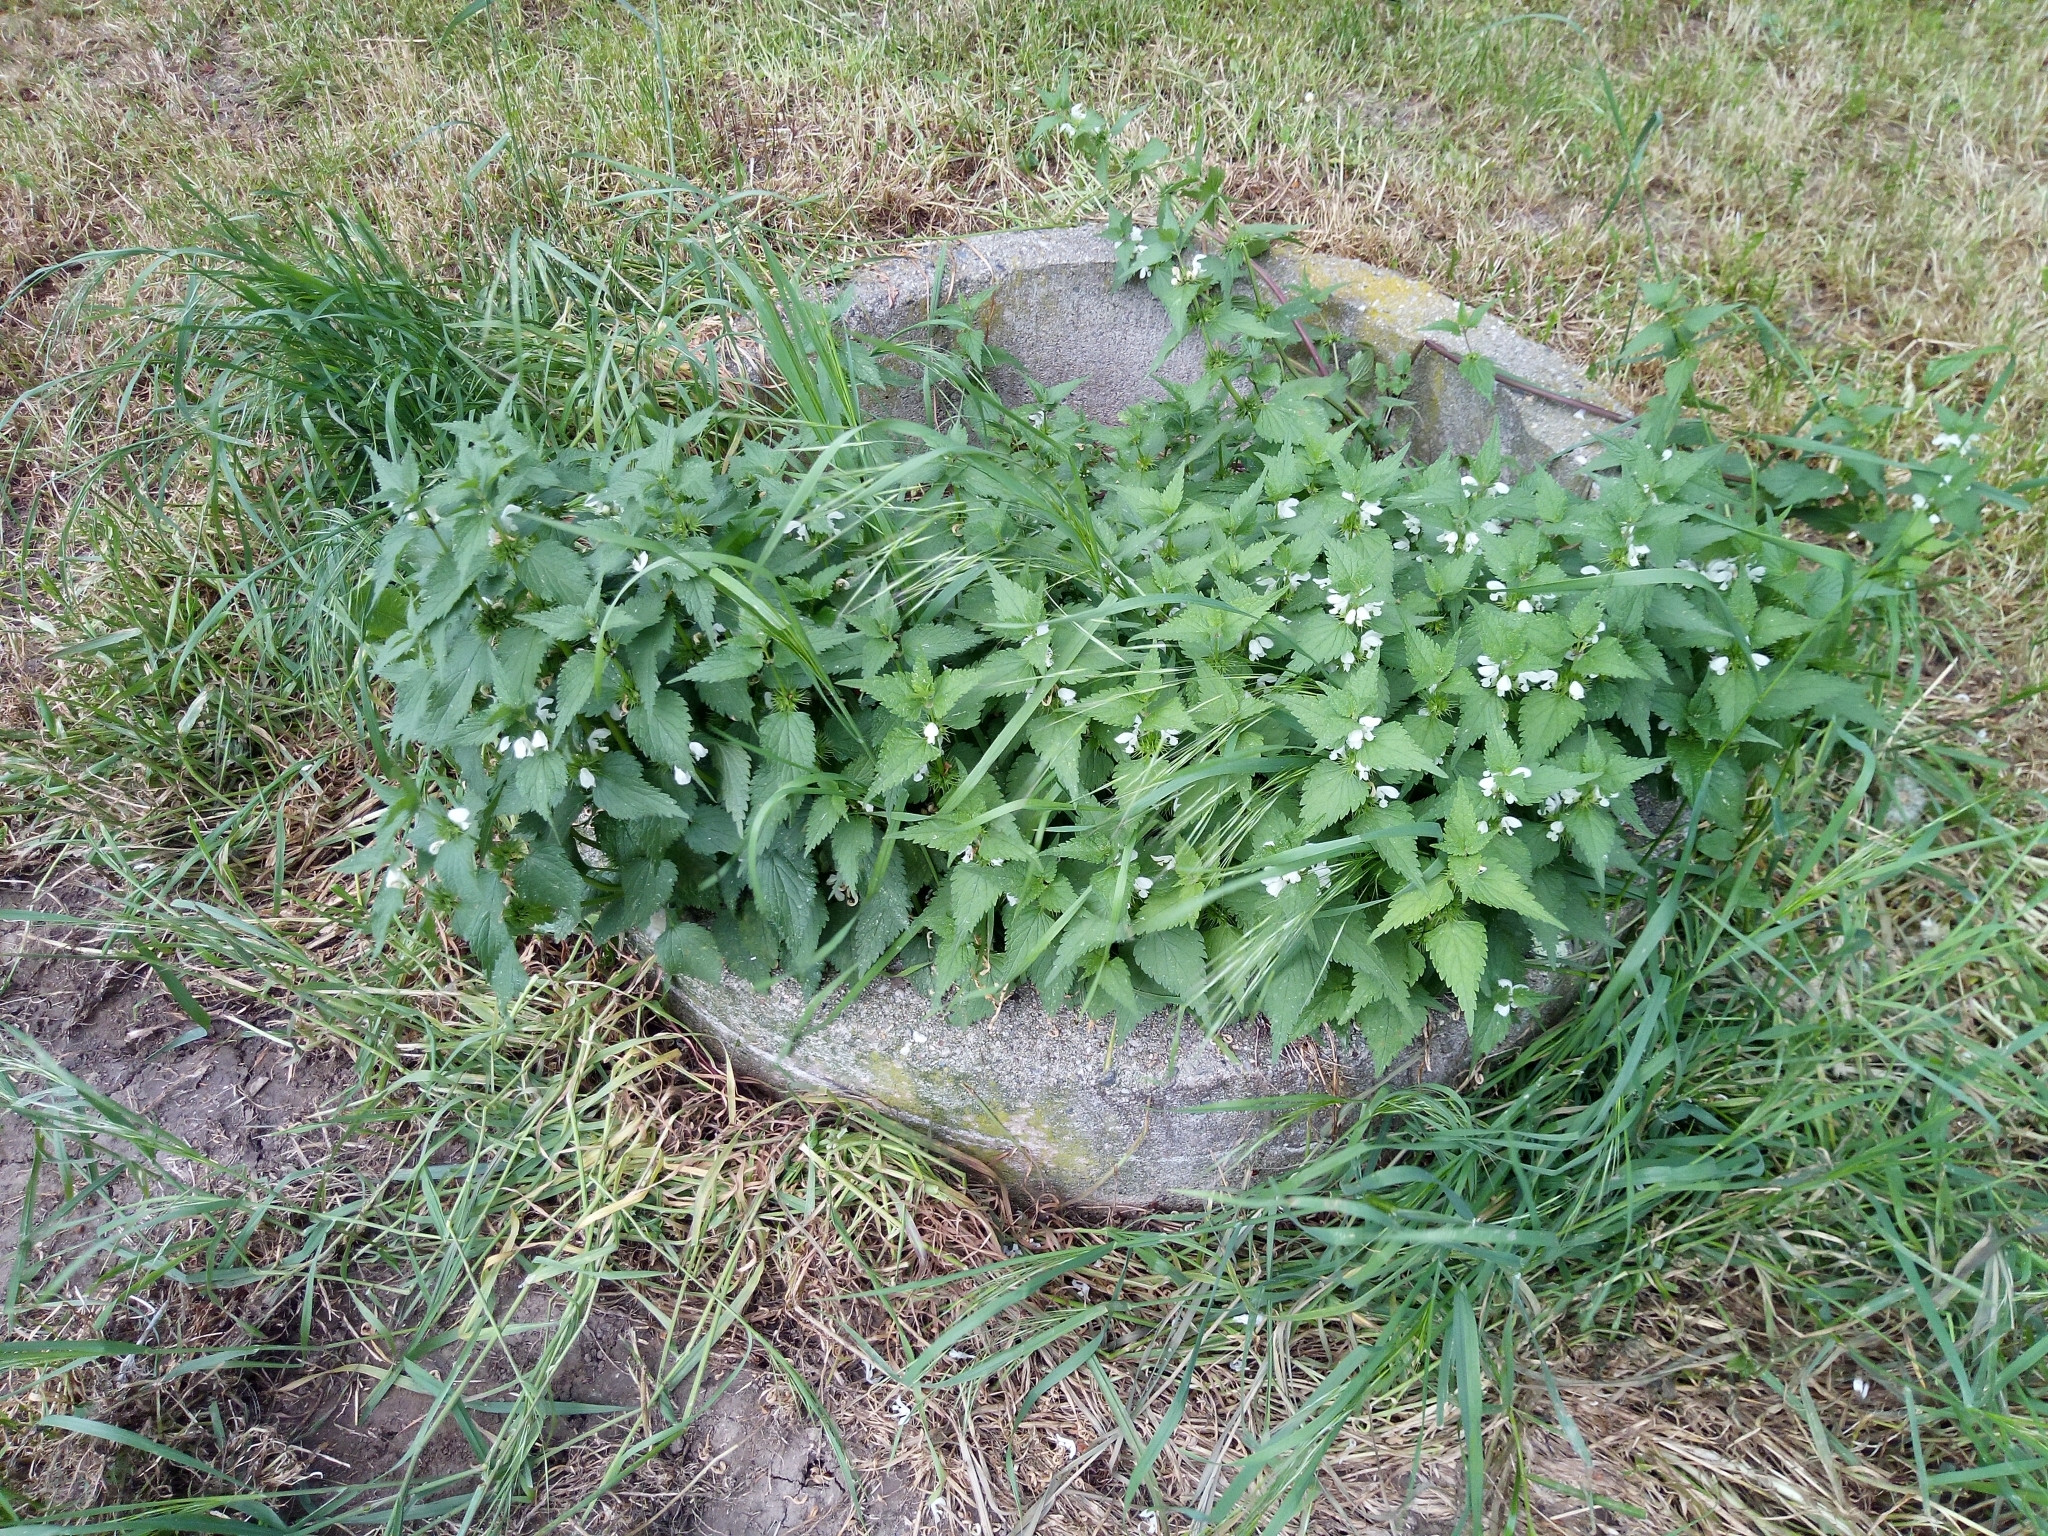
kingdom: Plantae
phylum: Tracheophyta
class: Magnoliopsida
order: Lamiales
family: Lamiaceae
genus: Lamium
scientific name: Lamium album
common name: White dead-nettle
